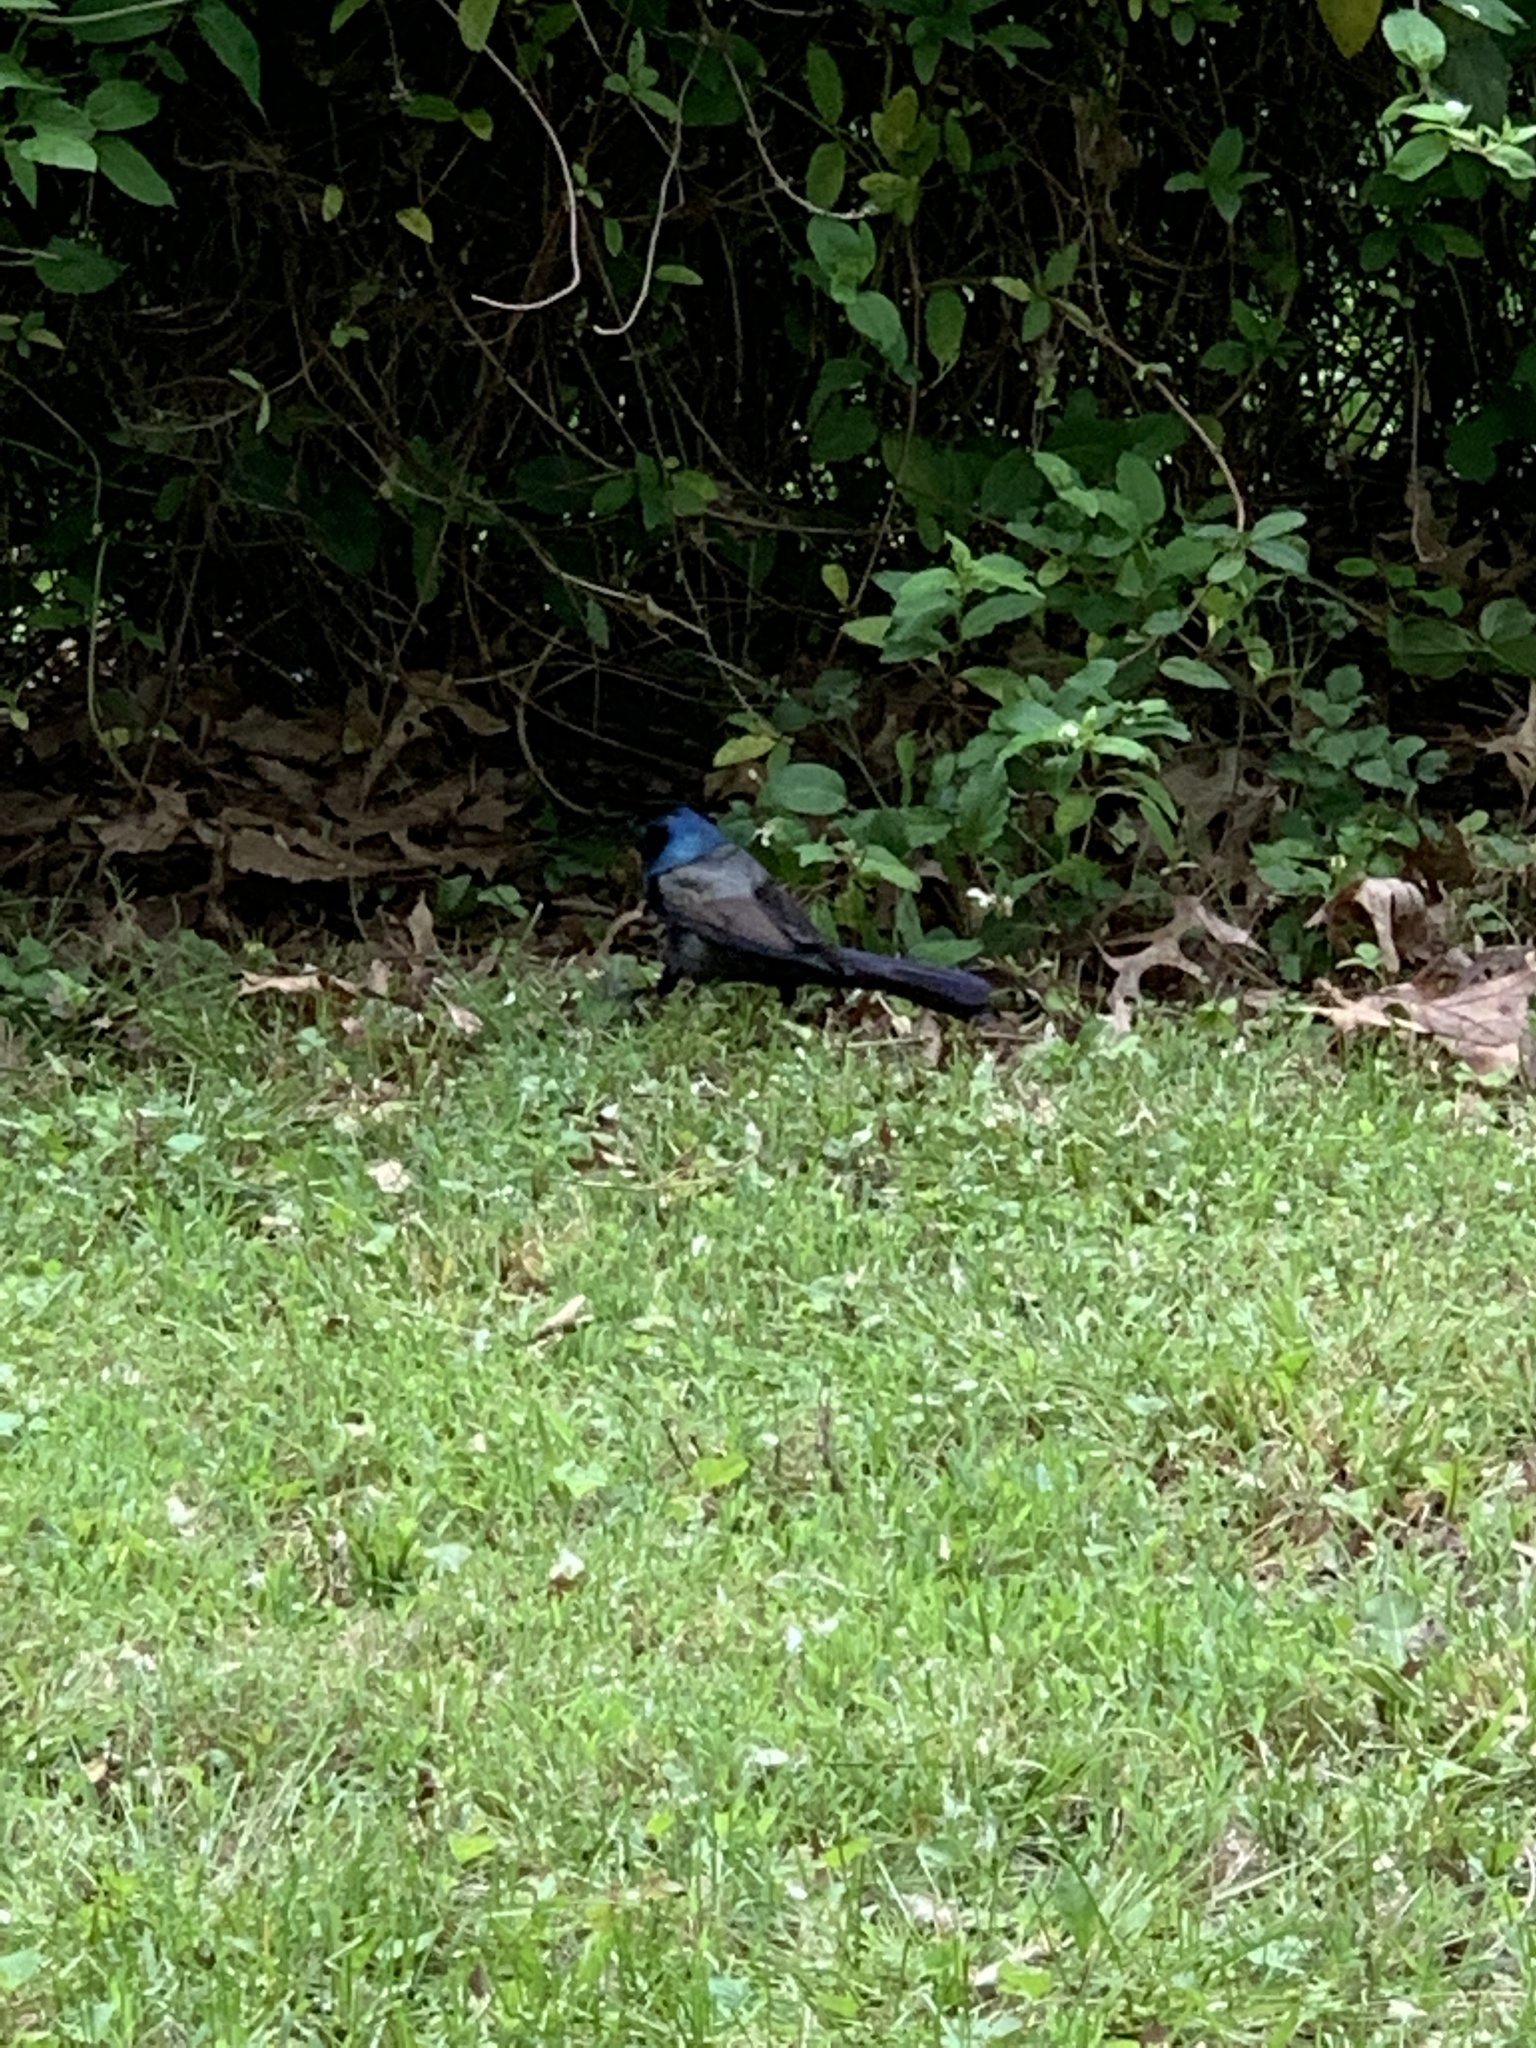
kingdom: Animalia
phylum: Chordata
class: Aves
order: Passeriformes
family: Icteridae
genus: Quiscalus
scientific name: Quiscalus quiscula
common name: Common grackle
